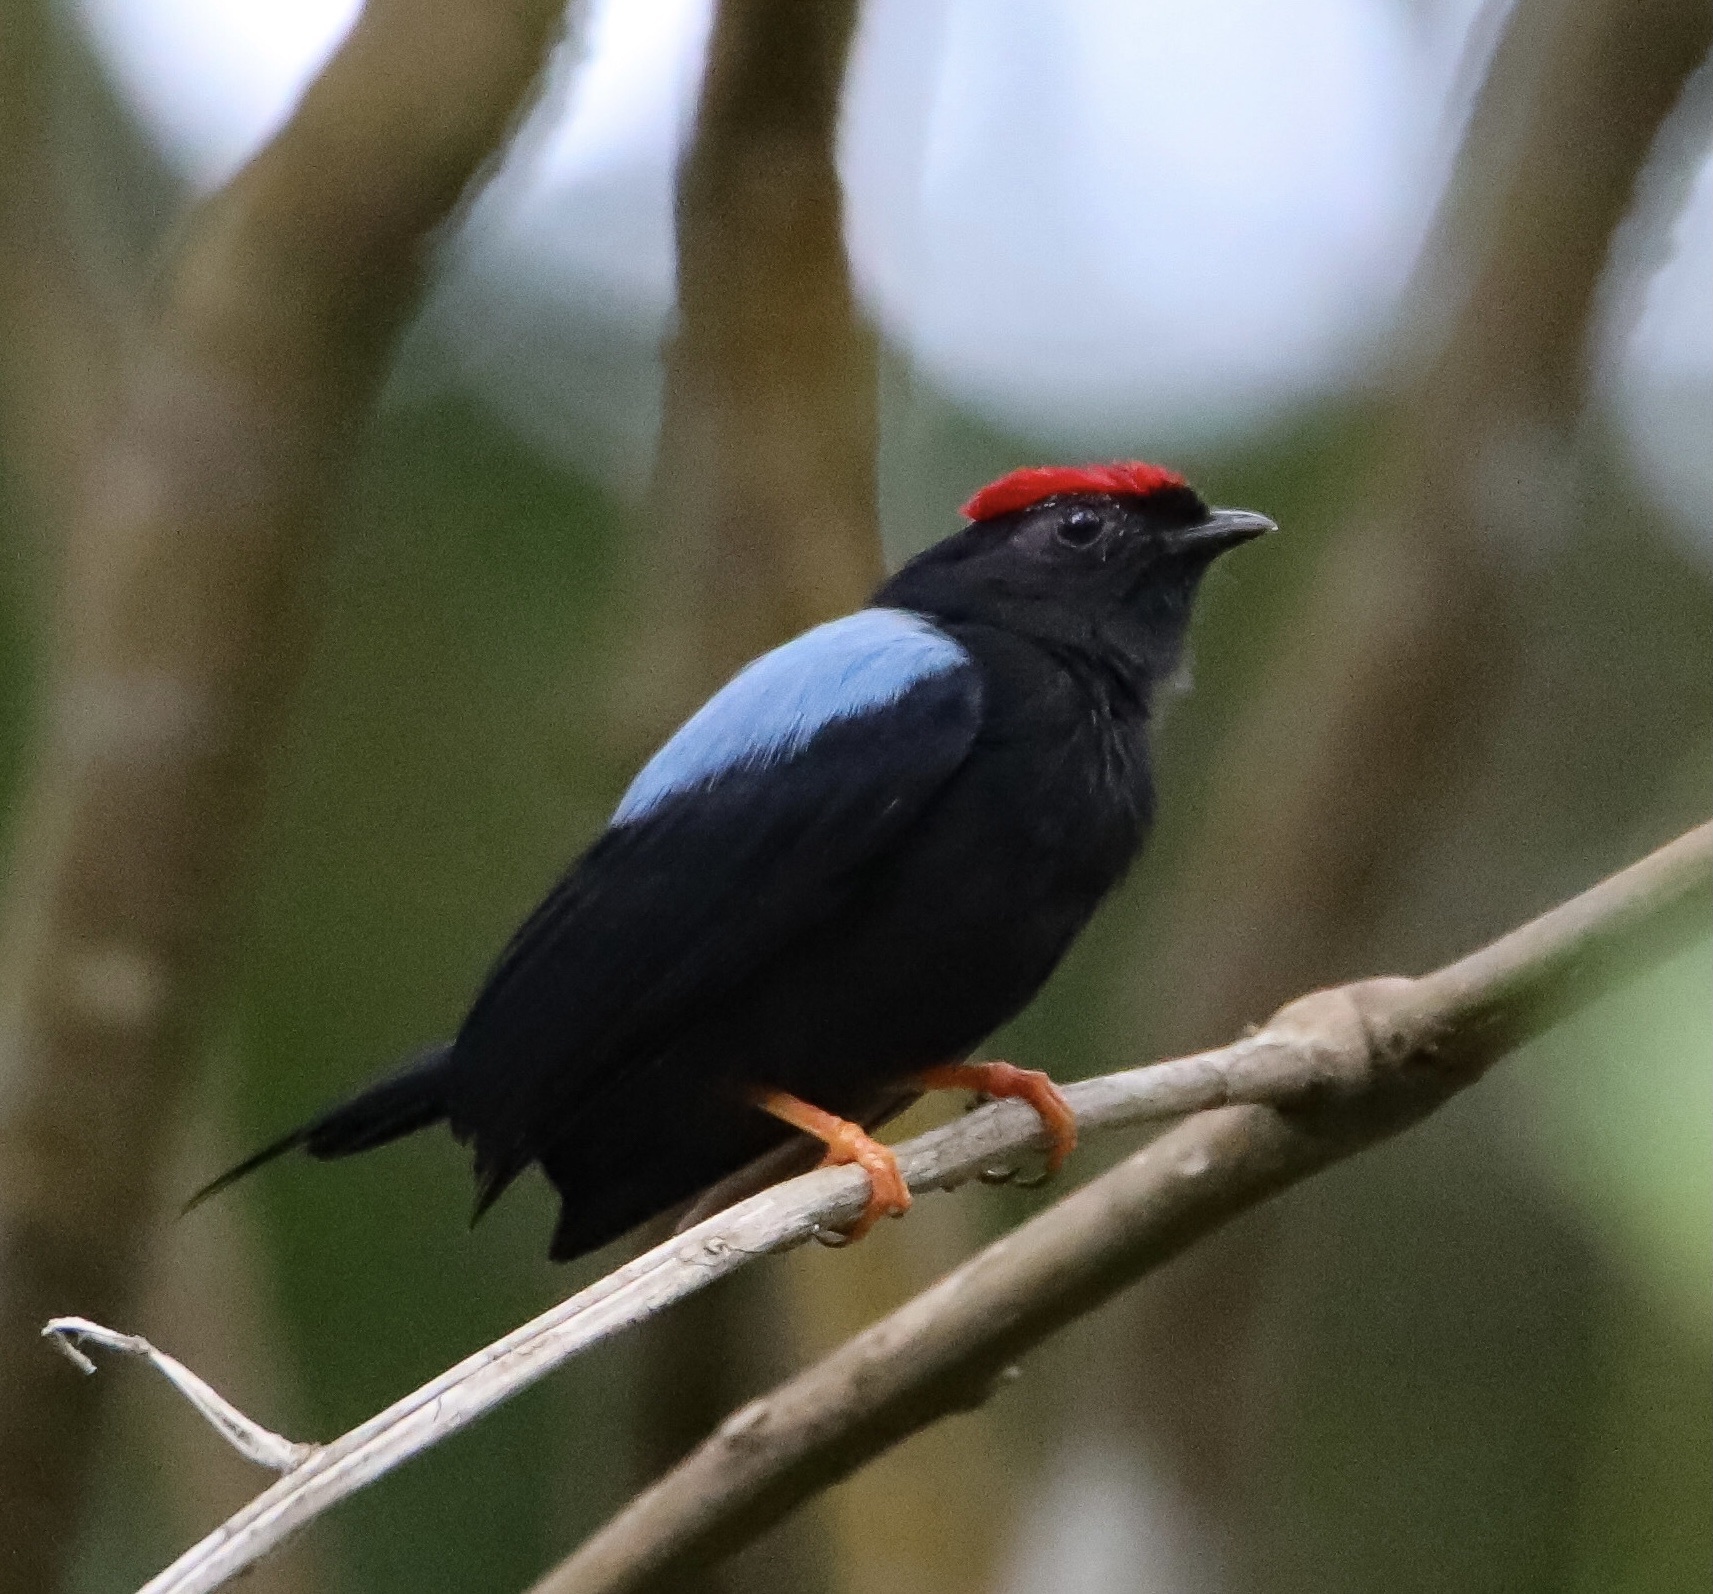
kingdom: Animalia
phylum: Chordata
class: Aves
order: Passeriformes
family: Pipridae
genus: Chiroxiphia
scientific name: Chiroxiphia lanceolata
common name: Lance-tailed manakin
